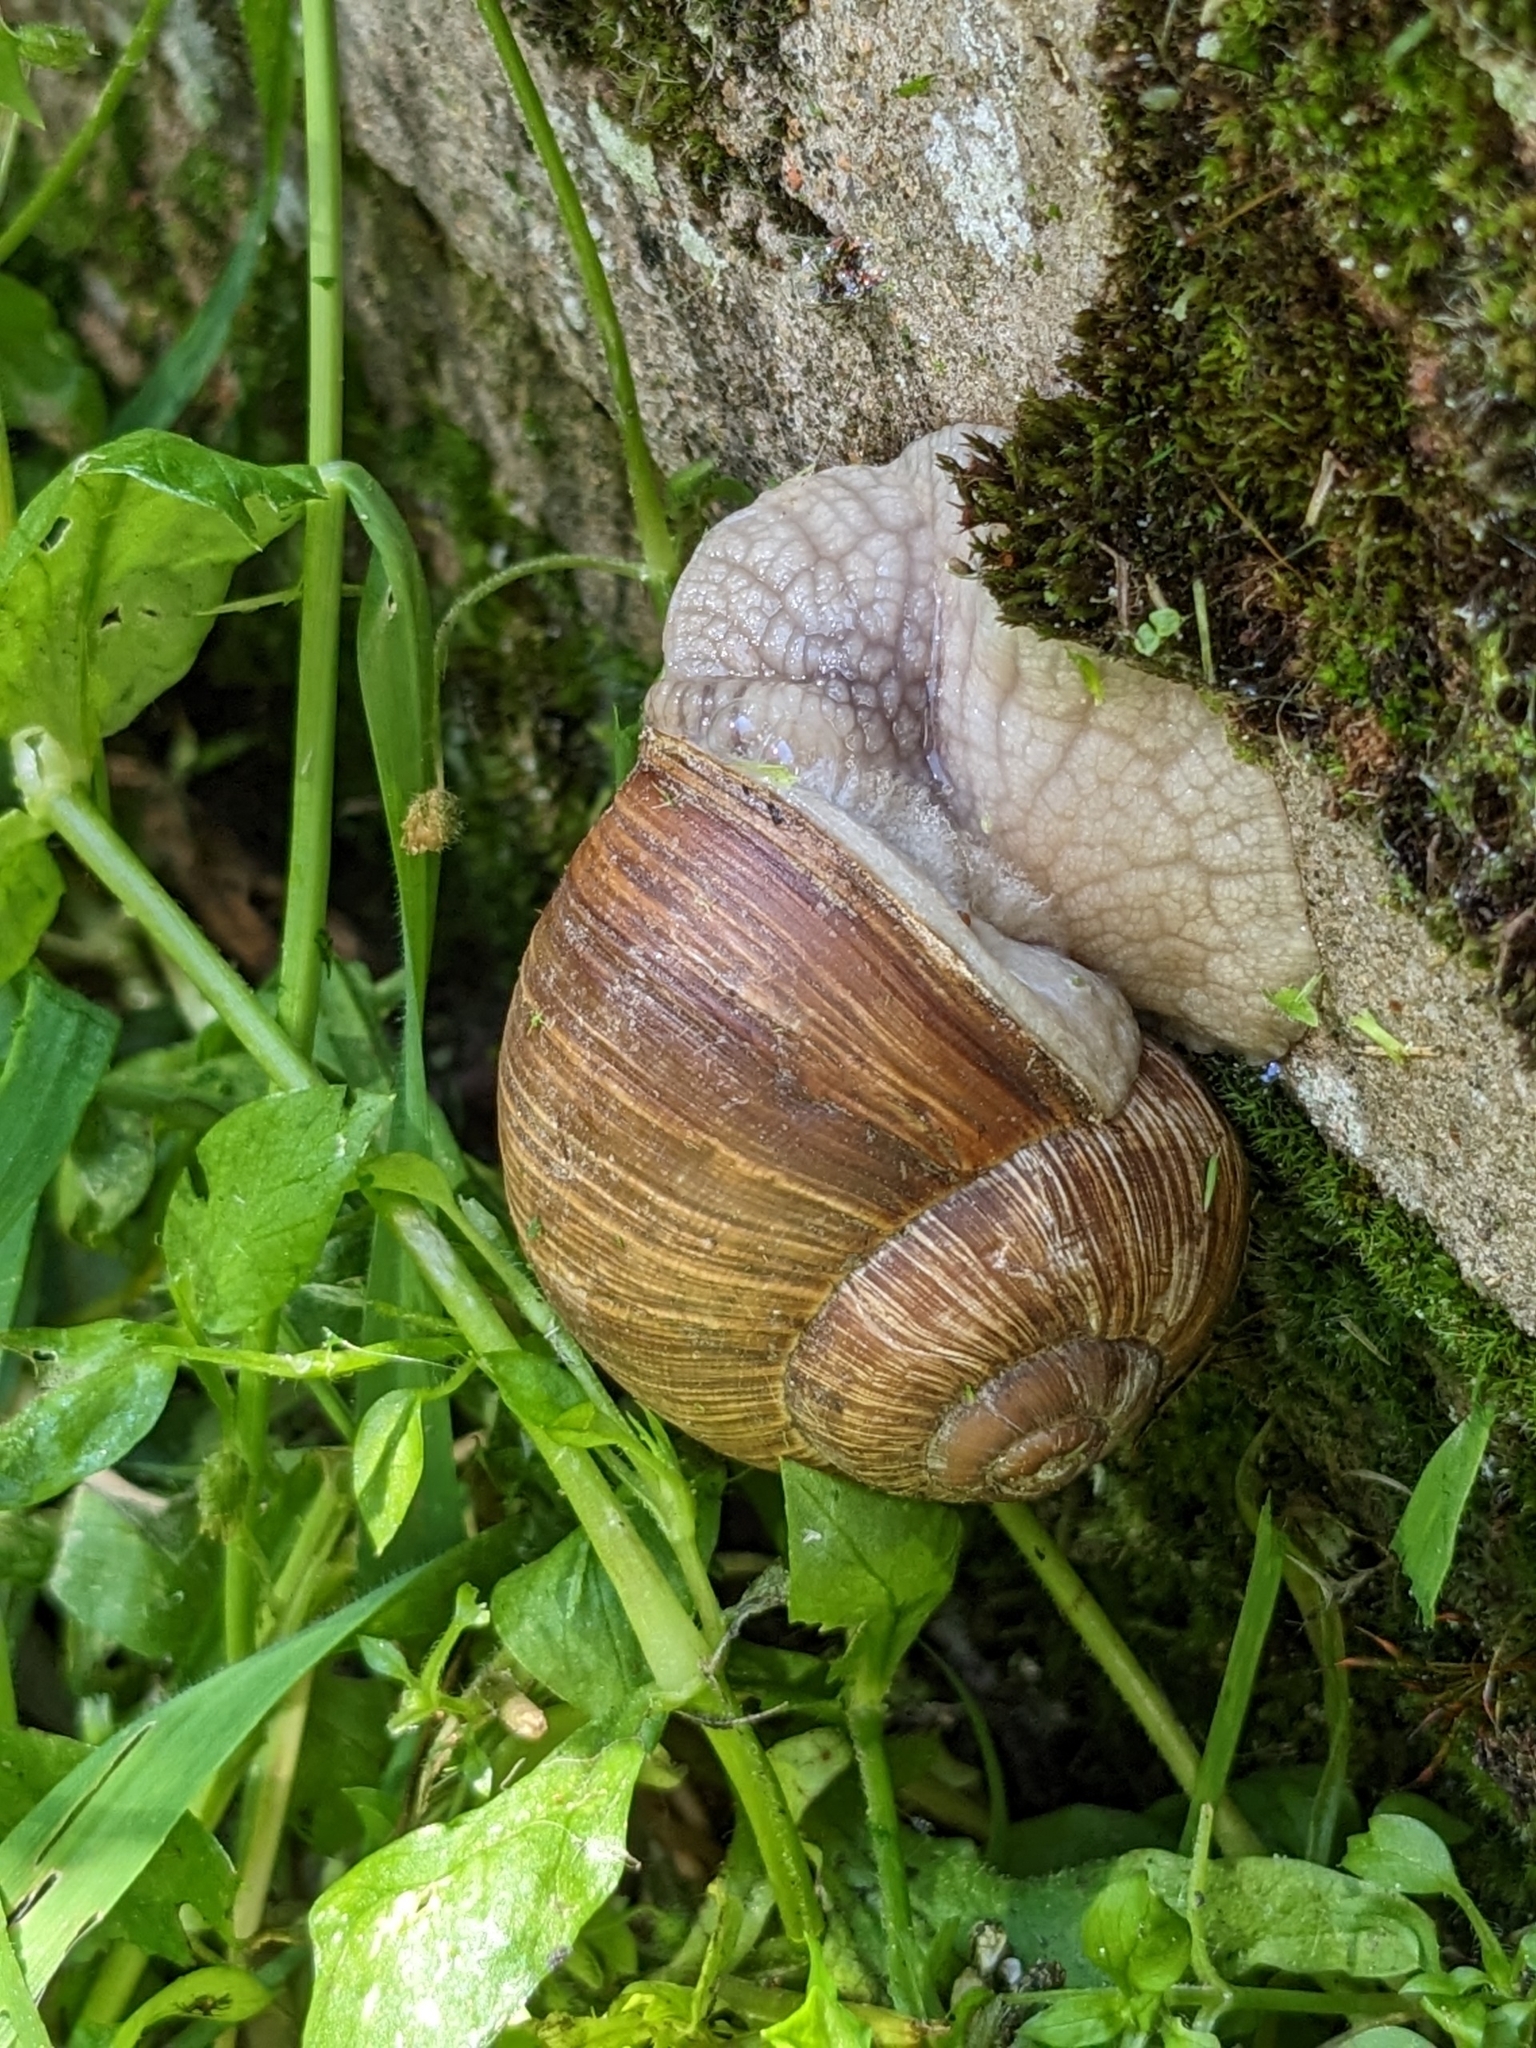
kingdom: Animalia
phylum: Mollusca
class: Gastropoda
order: Stylommatophora
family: Helicidae
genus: Helix
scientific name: Helix pomatia
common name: Roman snail
